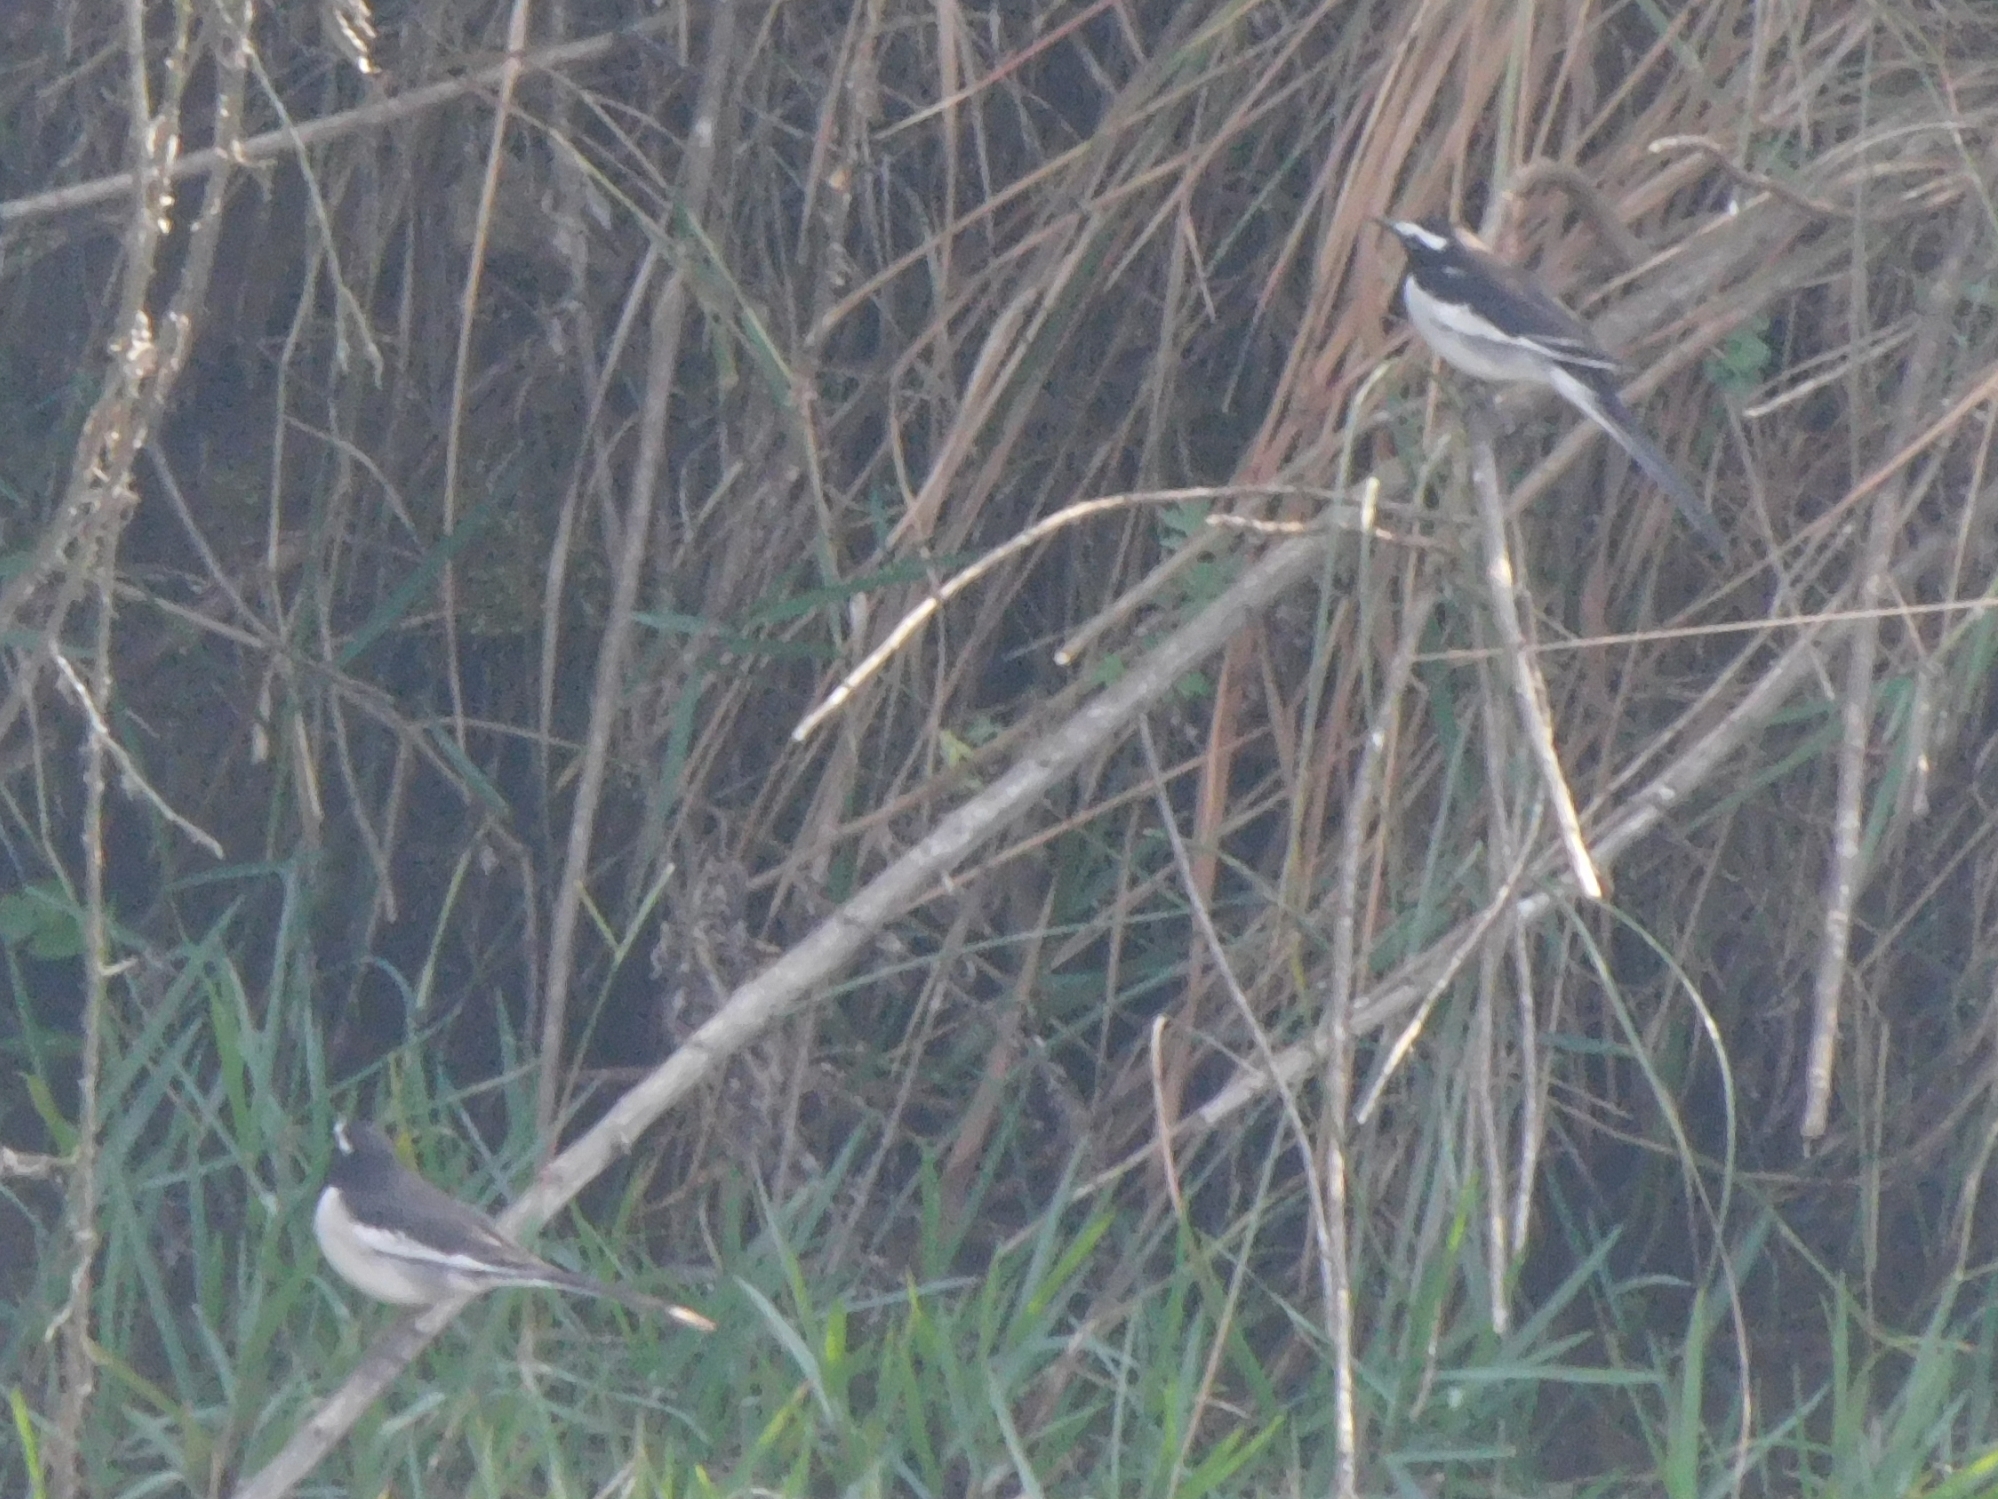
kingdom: Animalia
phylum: Chordata
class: Aves
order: Passeriformes
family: Motacillidae
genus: Motacilla
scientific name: Motacilla maderaspatensis
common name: White-browed wagtail
